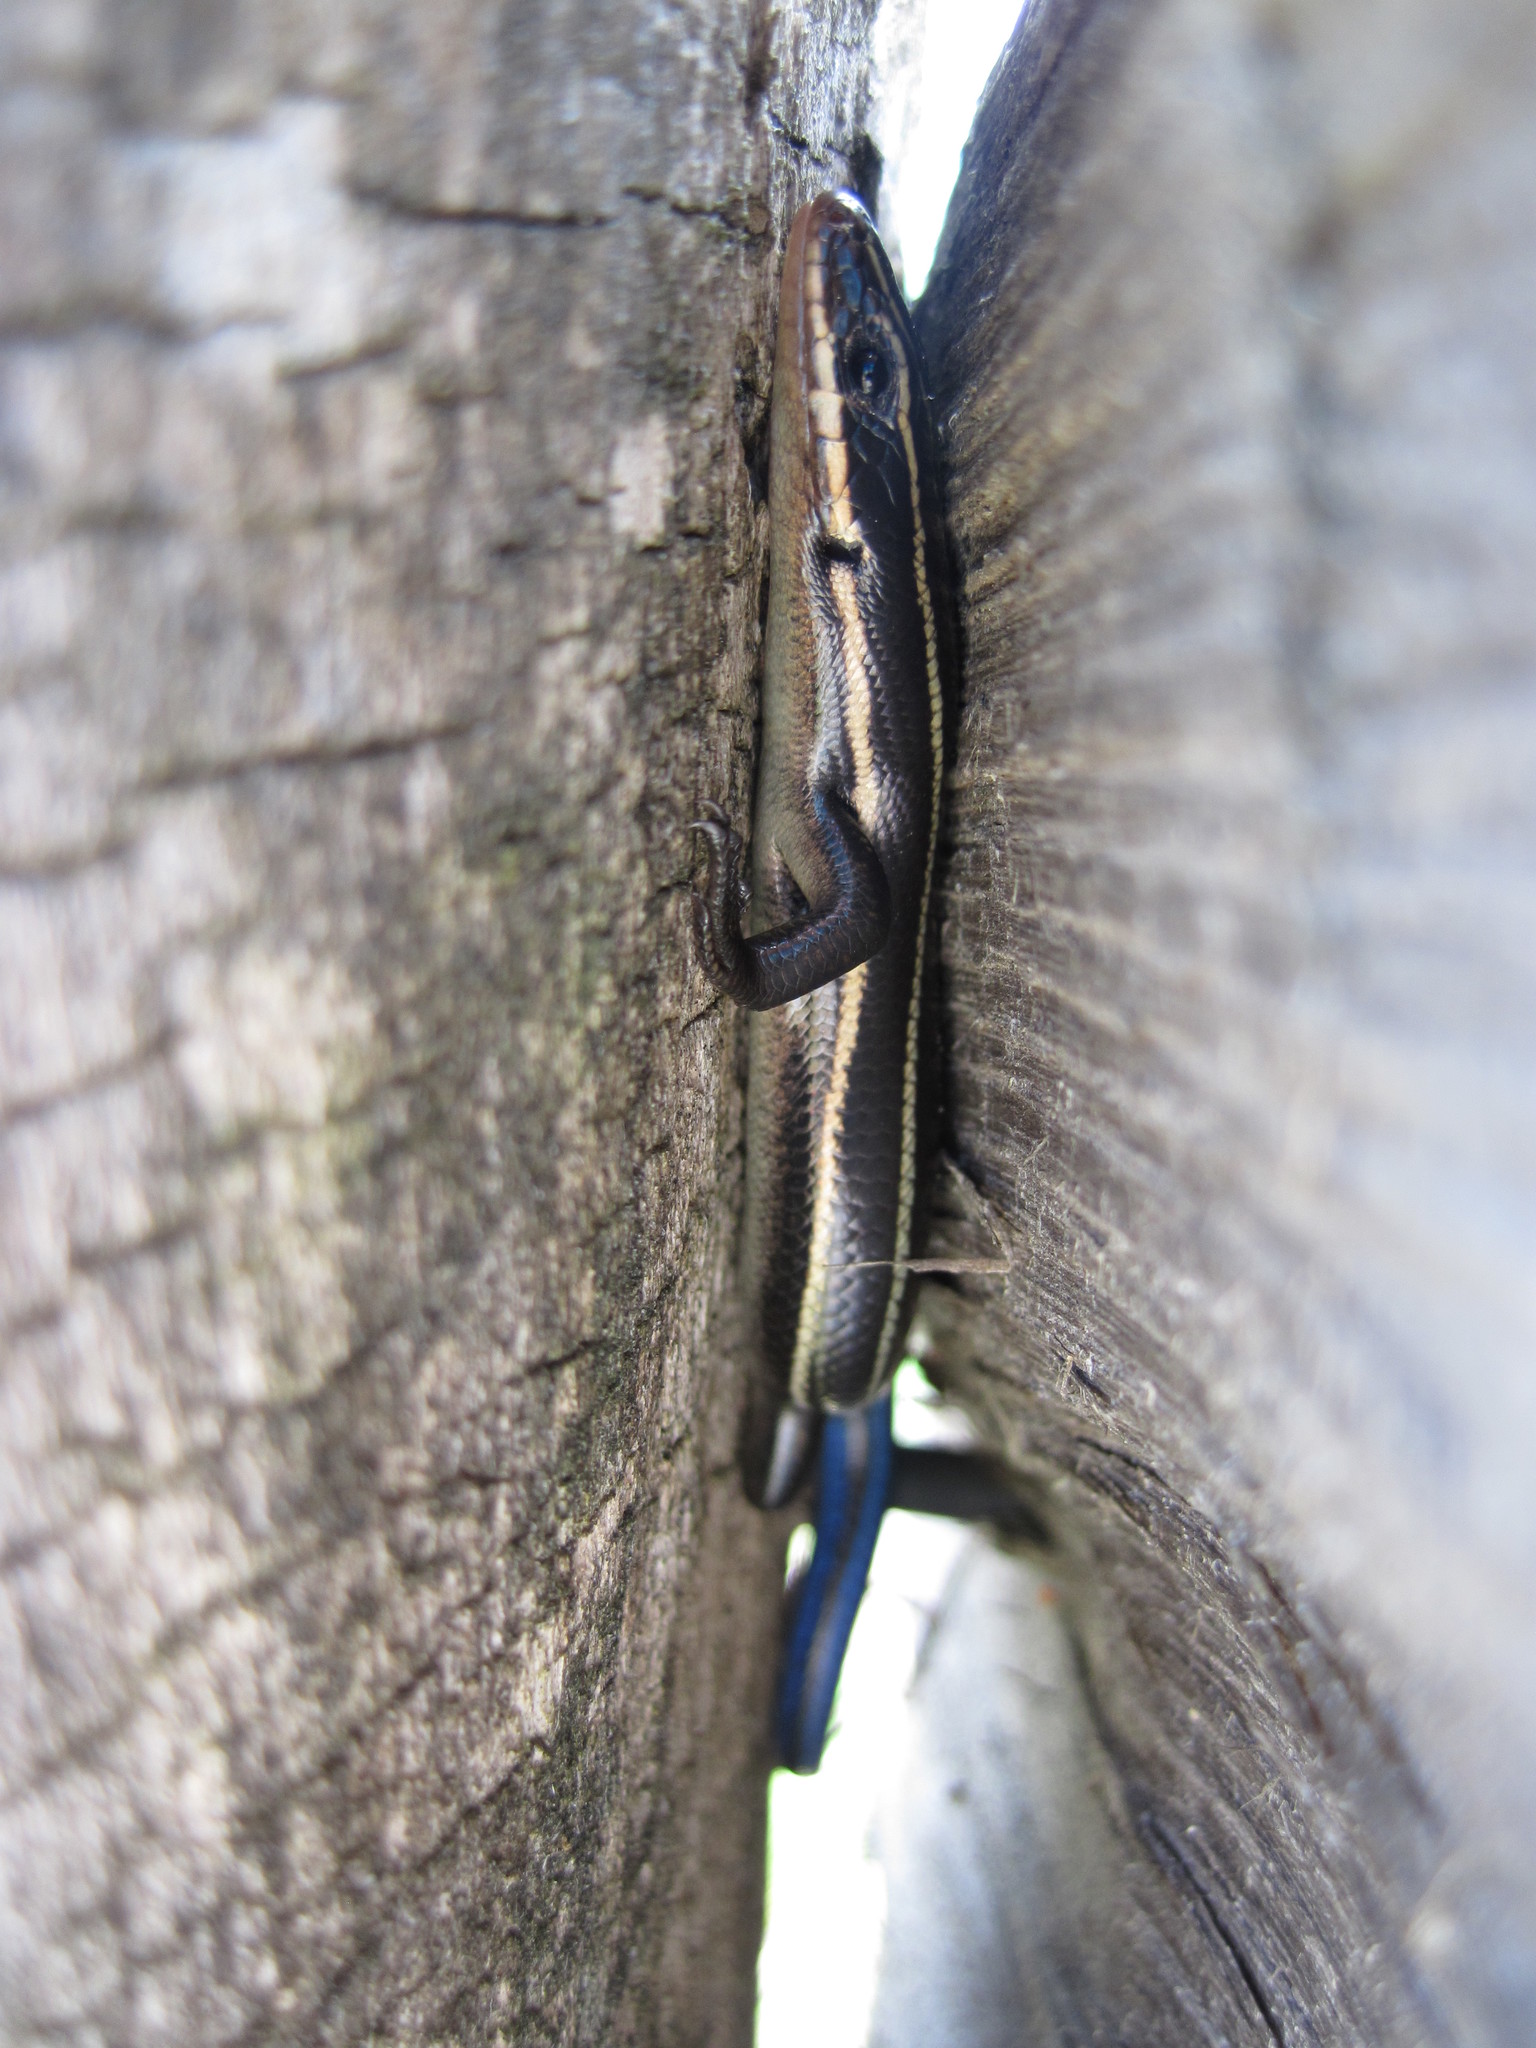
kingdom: Animalia
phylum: Chordata
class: Squamata
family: Scincidae
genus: Plestiodon
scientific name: Plestiodon fasciatus
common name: Five-lined skink
